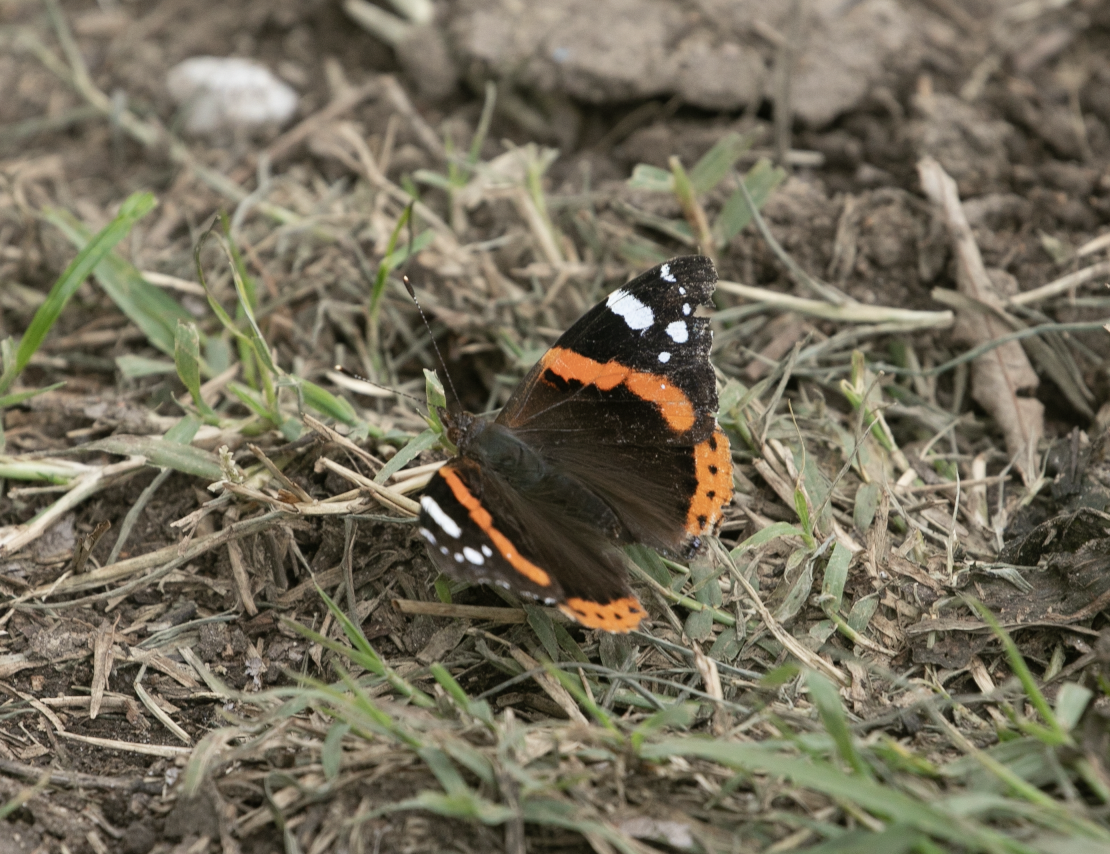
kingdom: Animalia
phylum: Arthropoda
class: Insecta
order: Lepidoptera
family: Nymphalidae
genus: Vanessa
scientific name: Vanessa atalanta
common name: Red admiral
